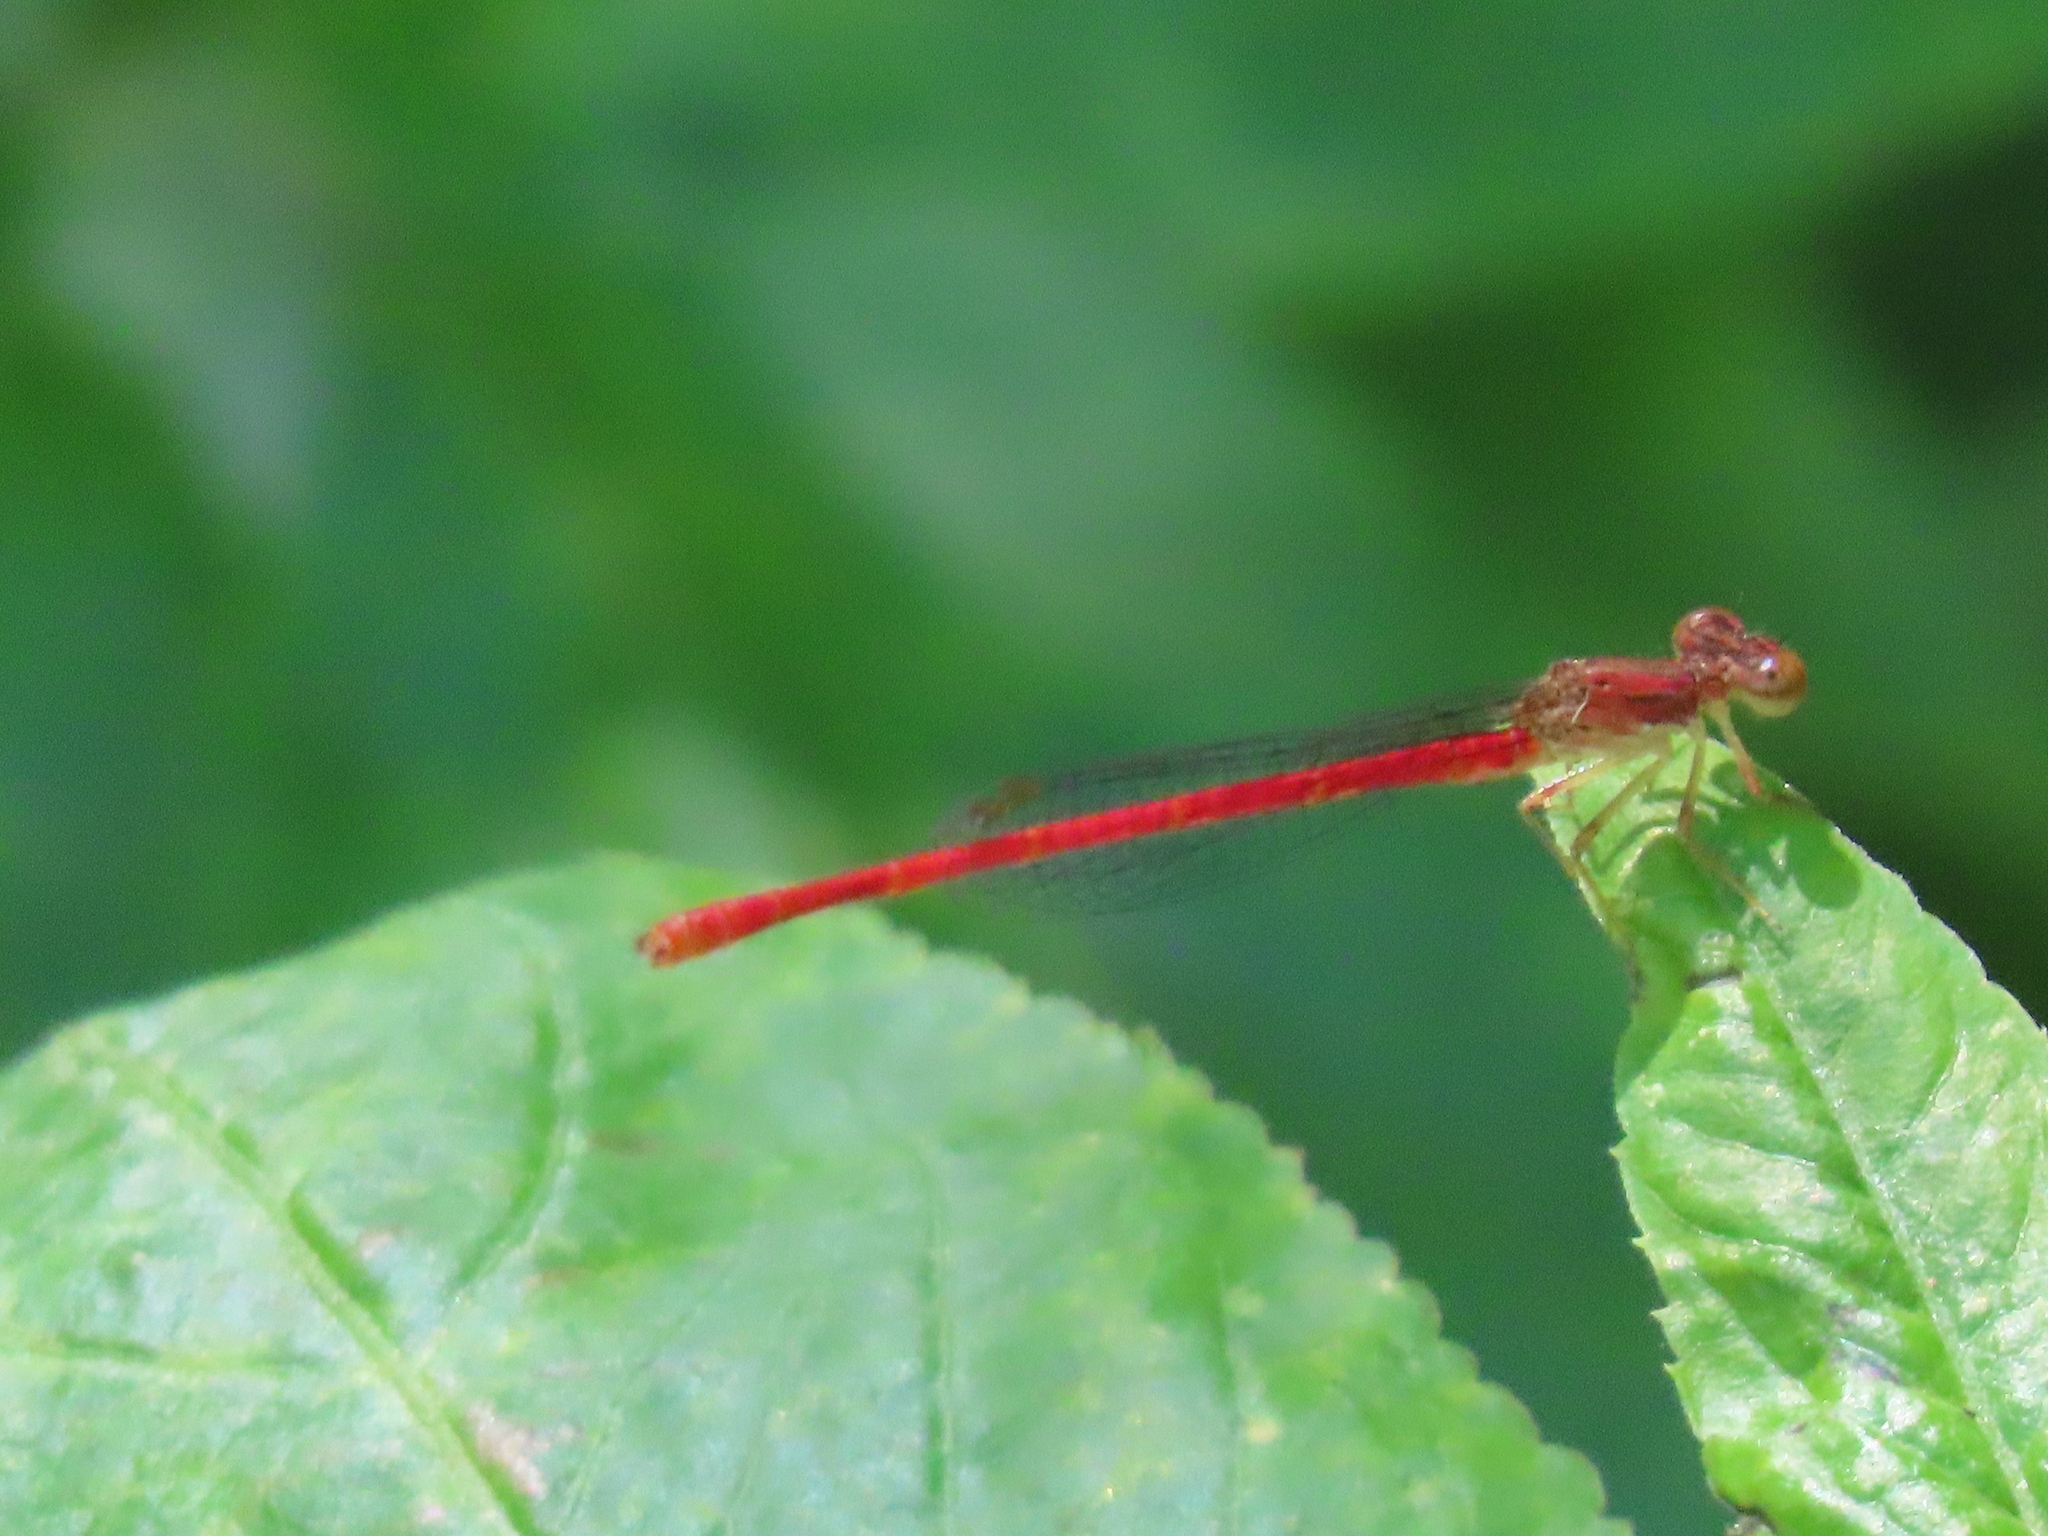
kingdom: Animalia
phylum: Arthropoda
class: Insecta
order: Odonata
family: Coenagrionidae
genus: Telebasis
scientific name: Telebasis byersi
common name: Duckweed firetail
